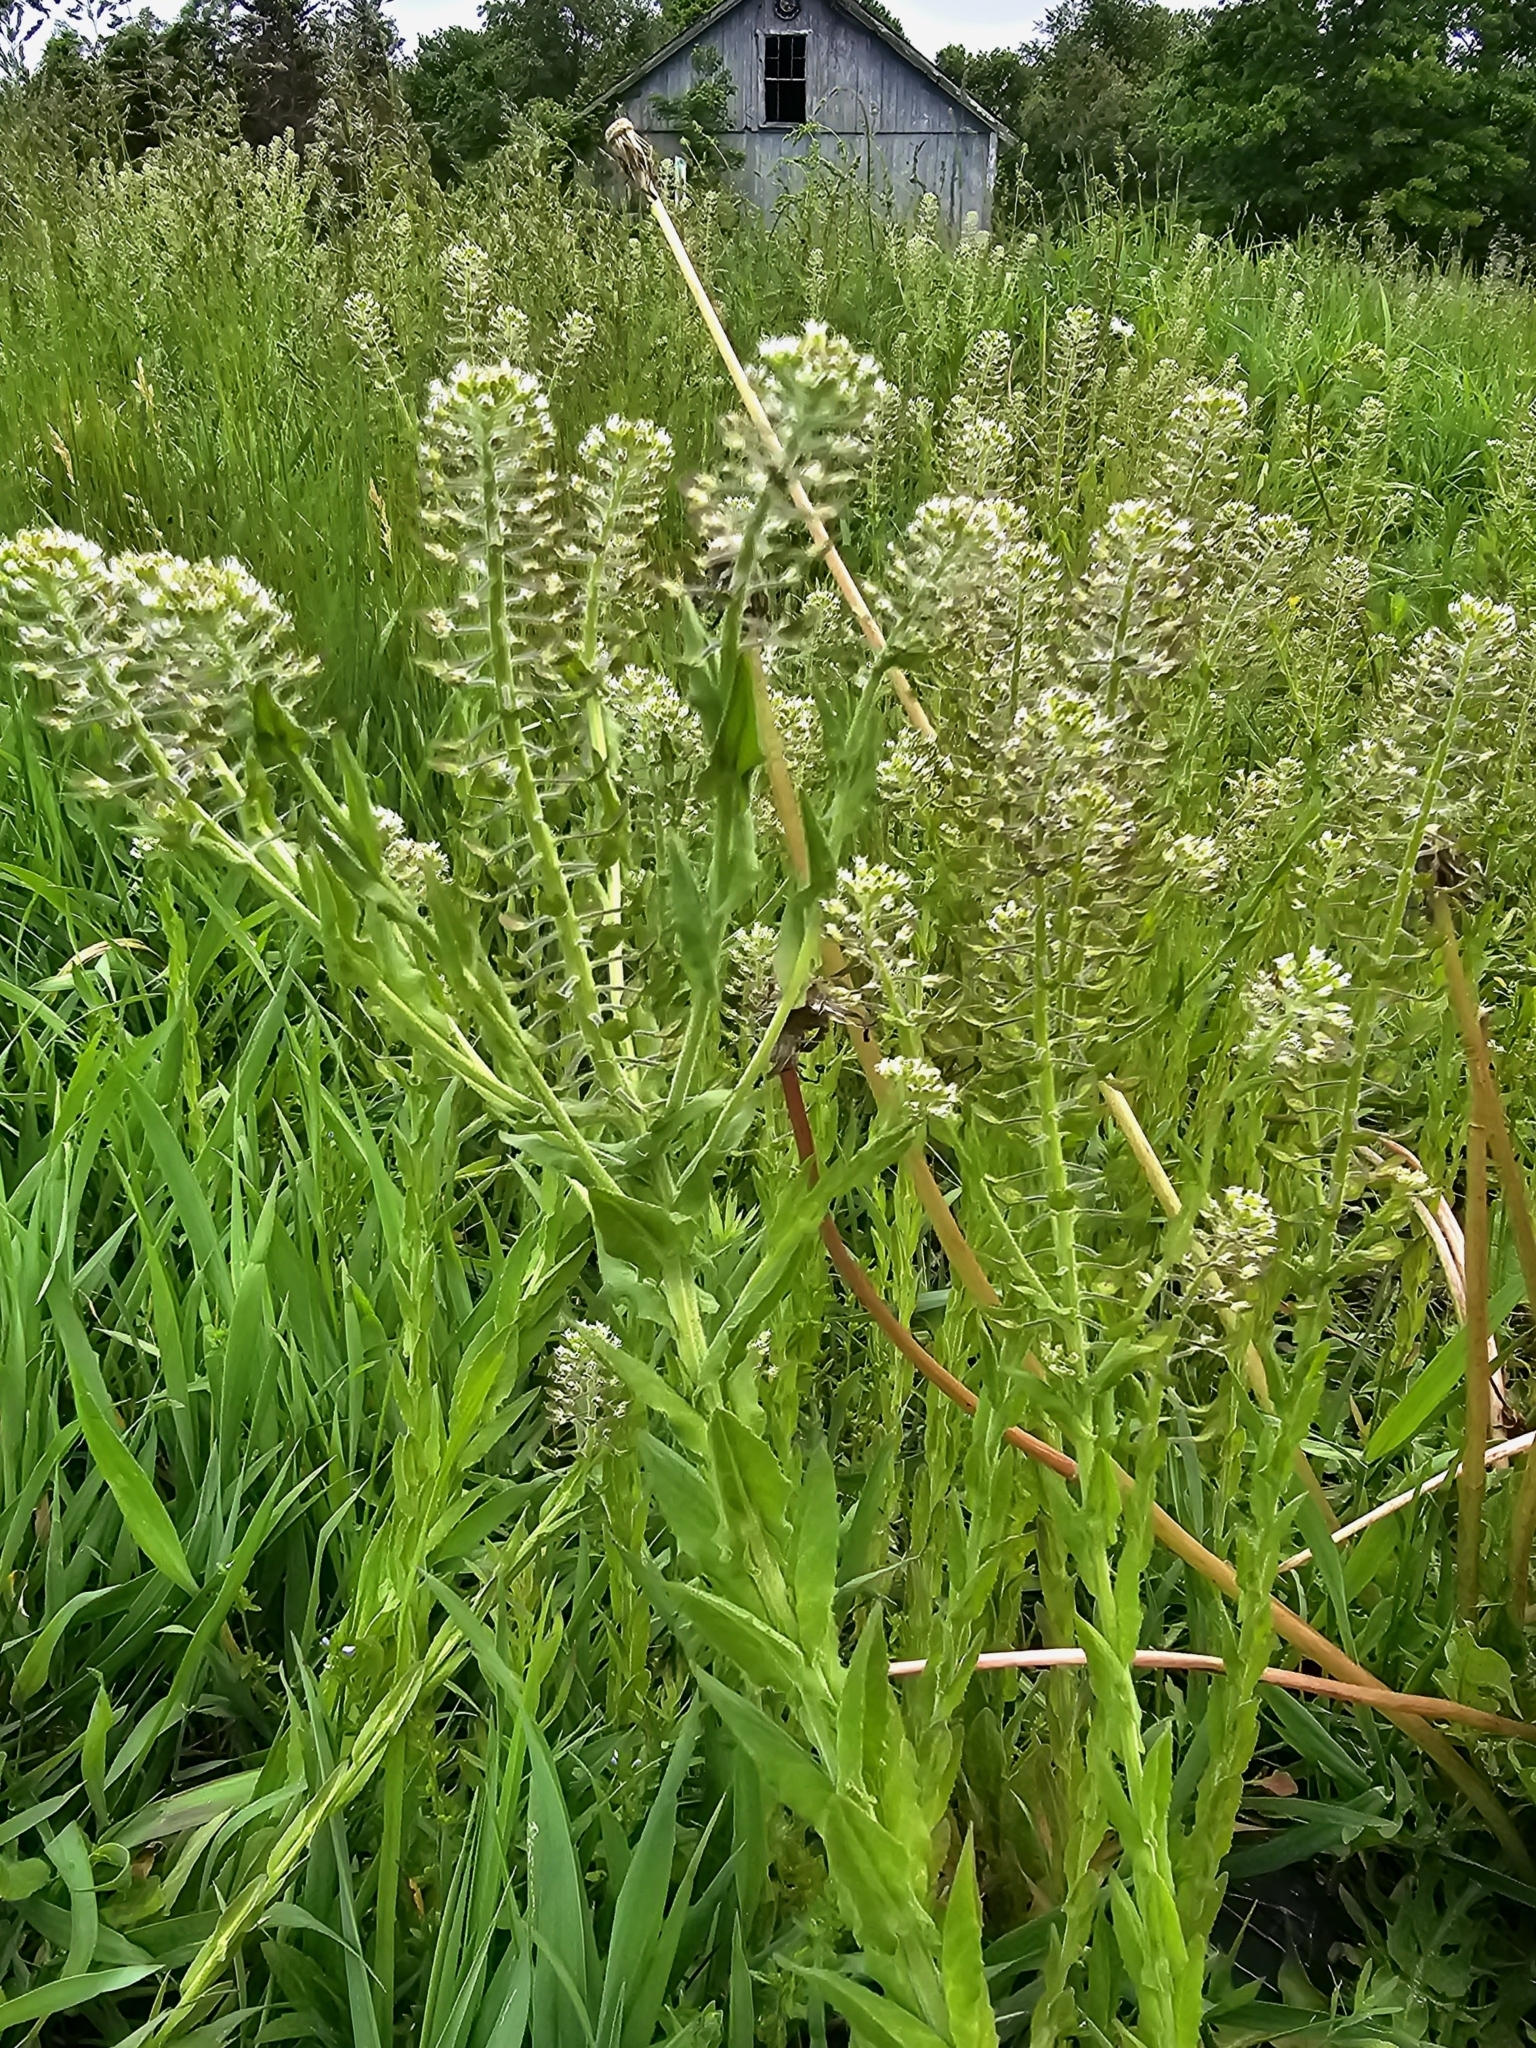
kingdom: Plantae
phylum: Tracheophyta
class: Magnoliopsida
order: Brassicales
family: Brassicaceae
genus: Lepidium
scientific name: Lepidium campestre
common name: Field pepperwort
